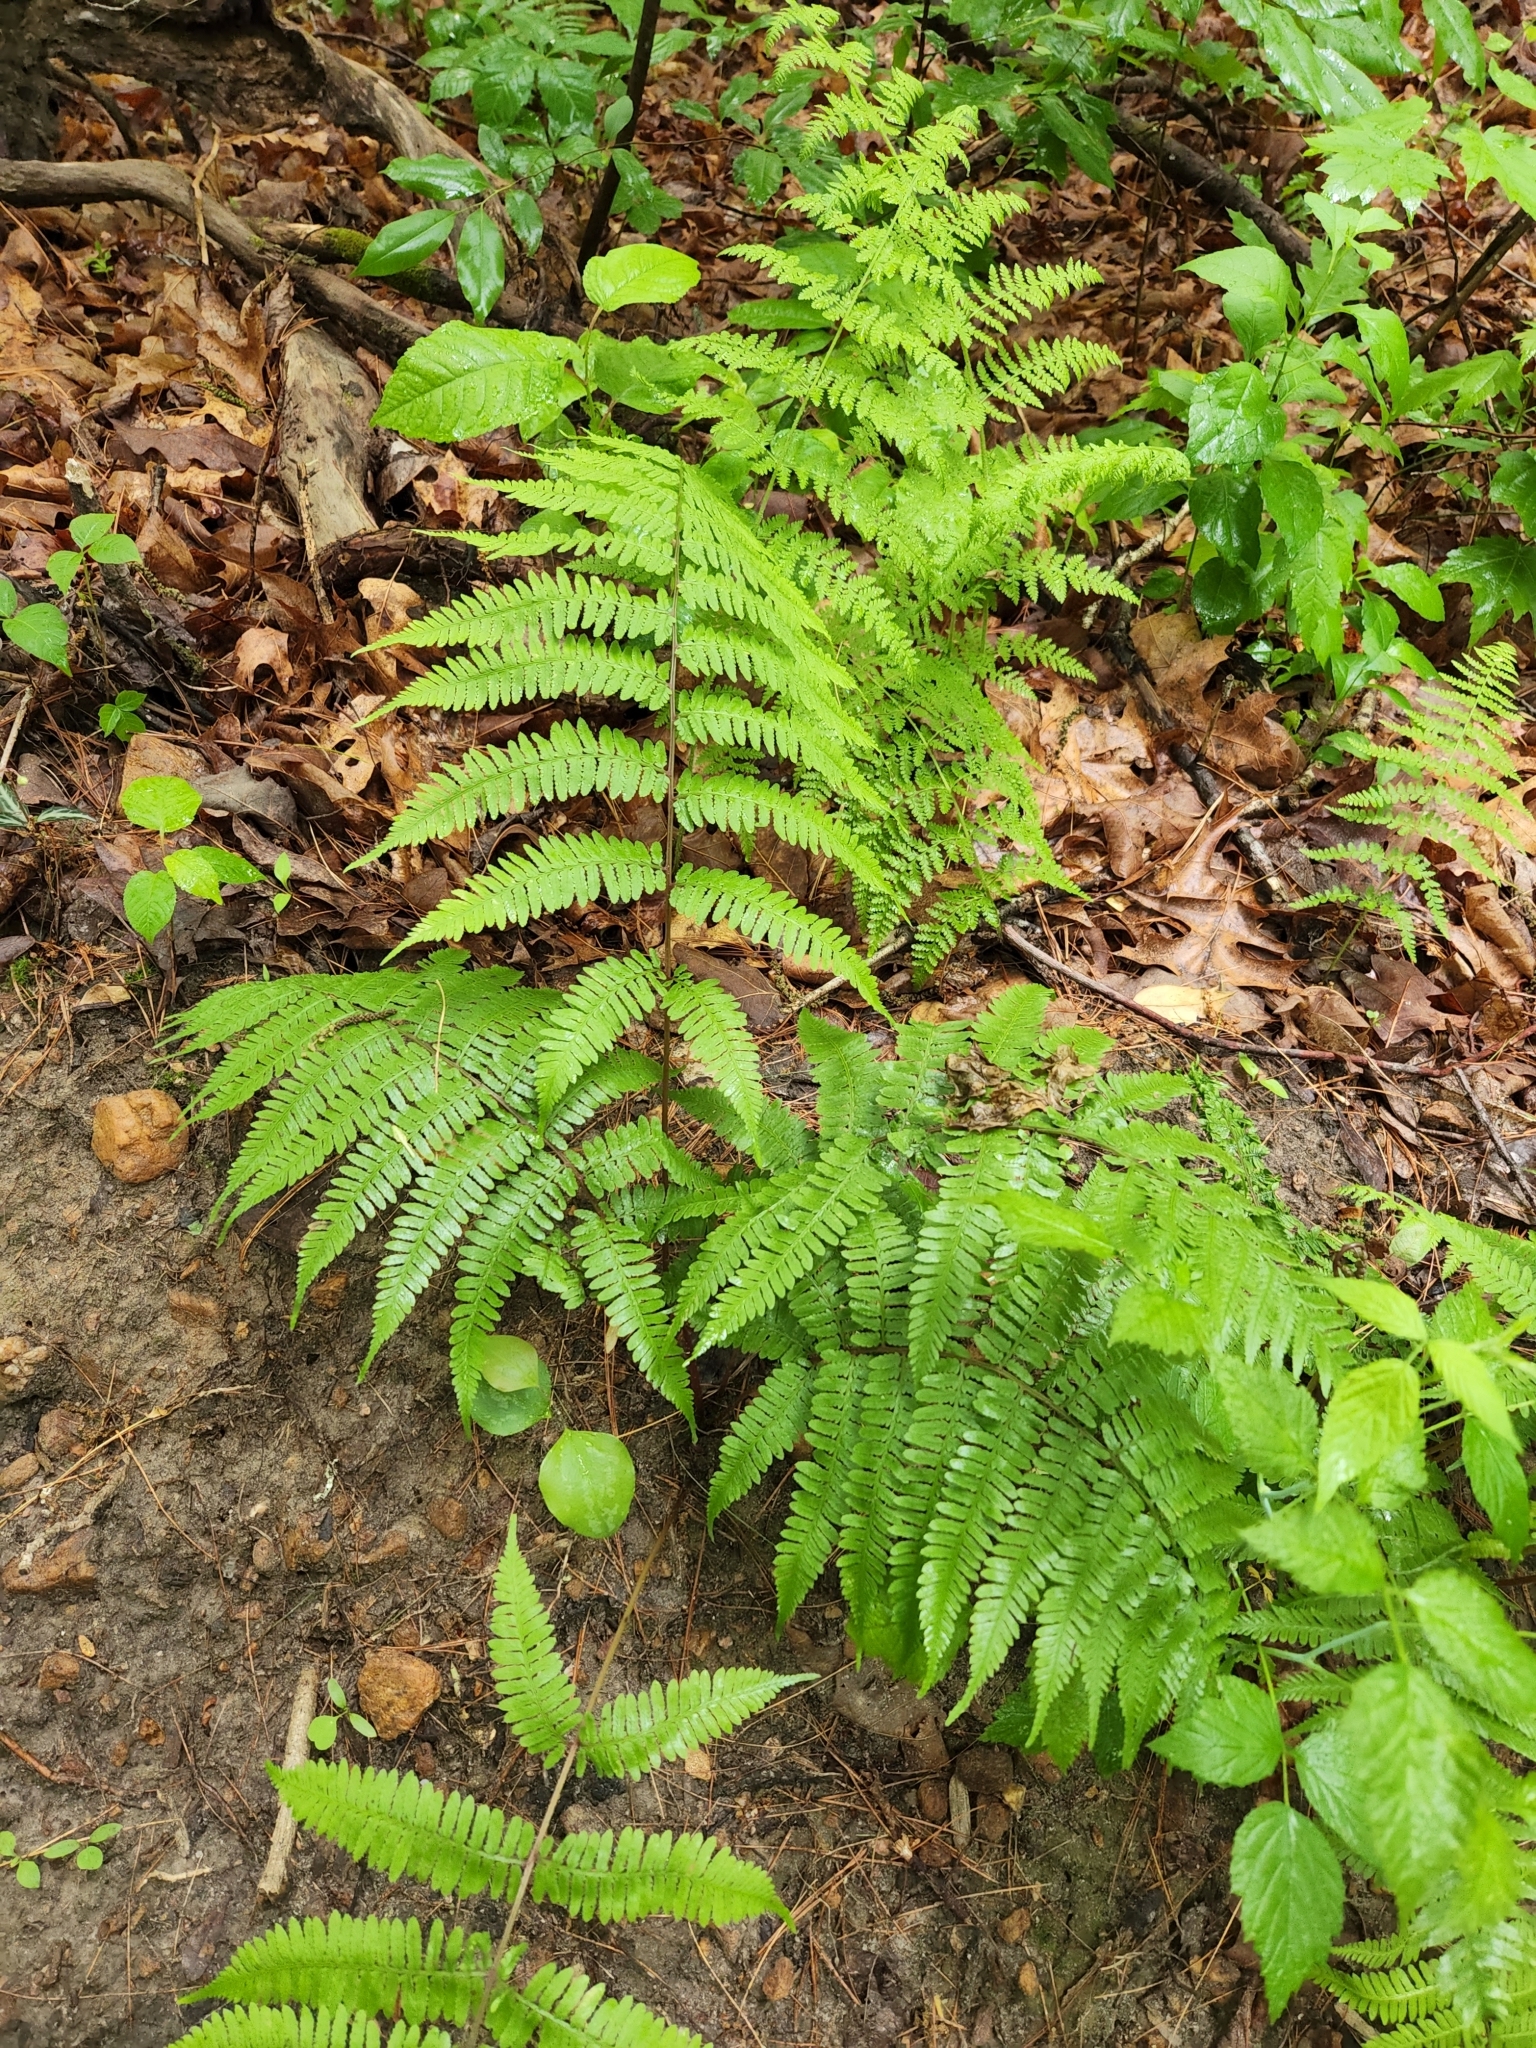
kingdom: Plantae
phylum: Tracheophyta
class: Polypodiopsida
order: Polypodiales
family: Athyriaceae
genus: Athyrium
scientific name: Athyrium asplenioides
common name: Southern lady fern
